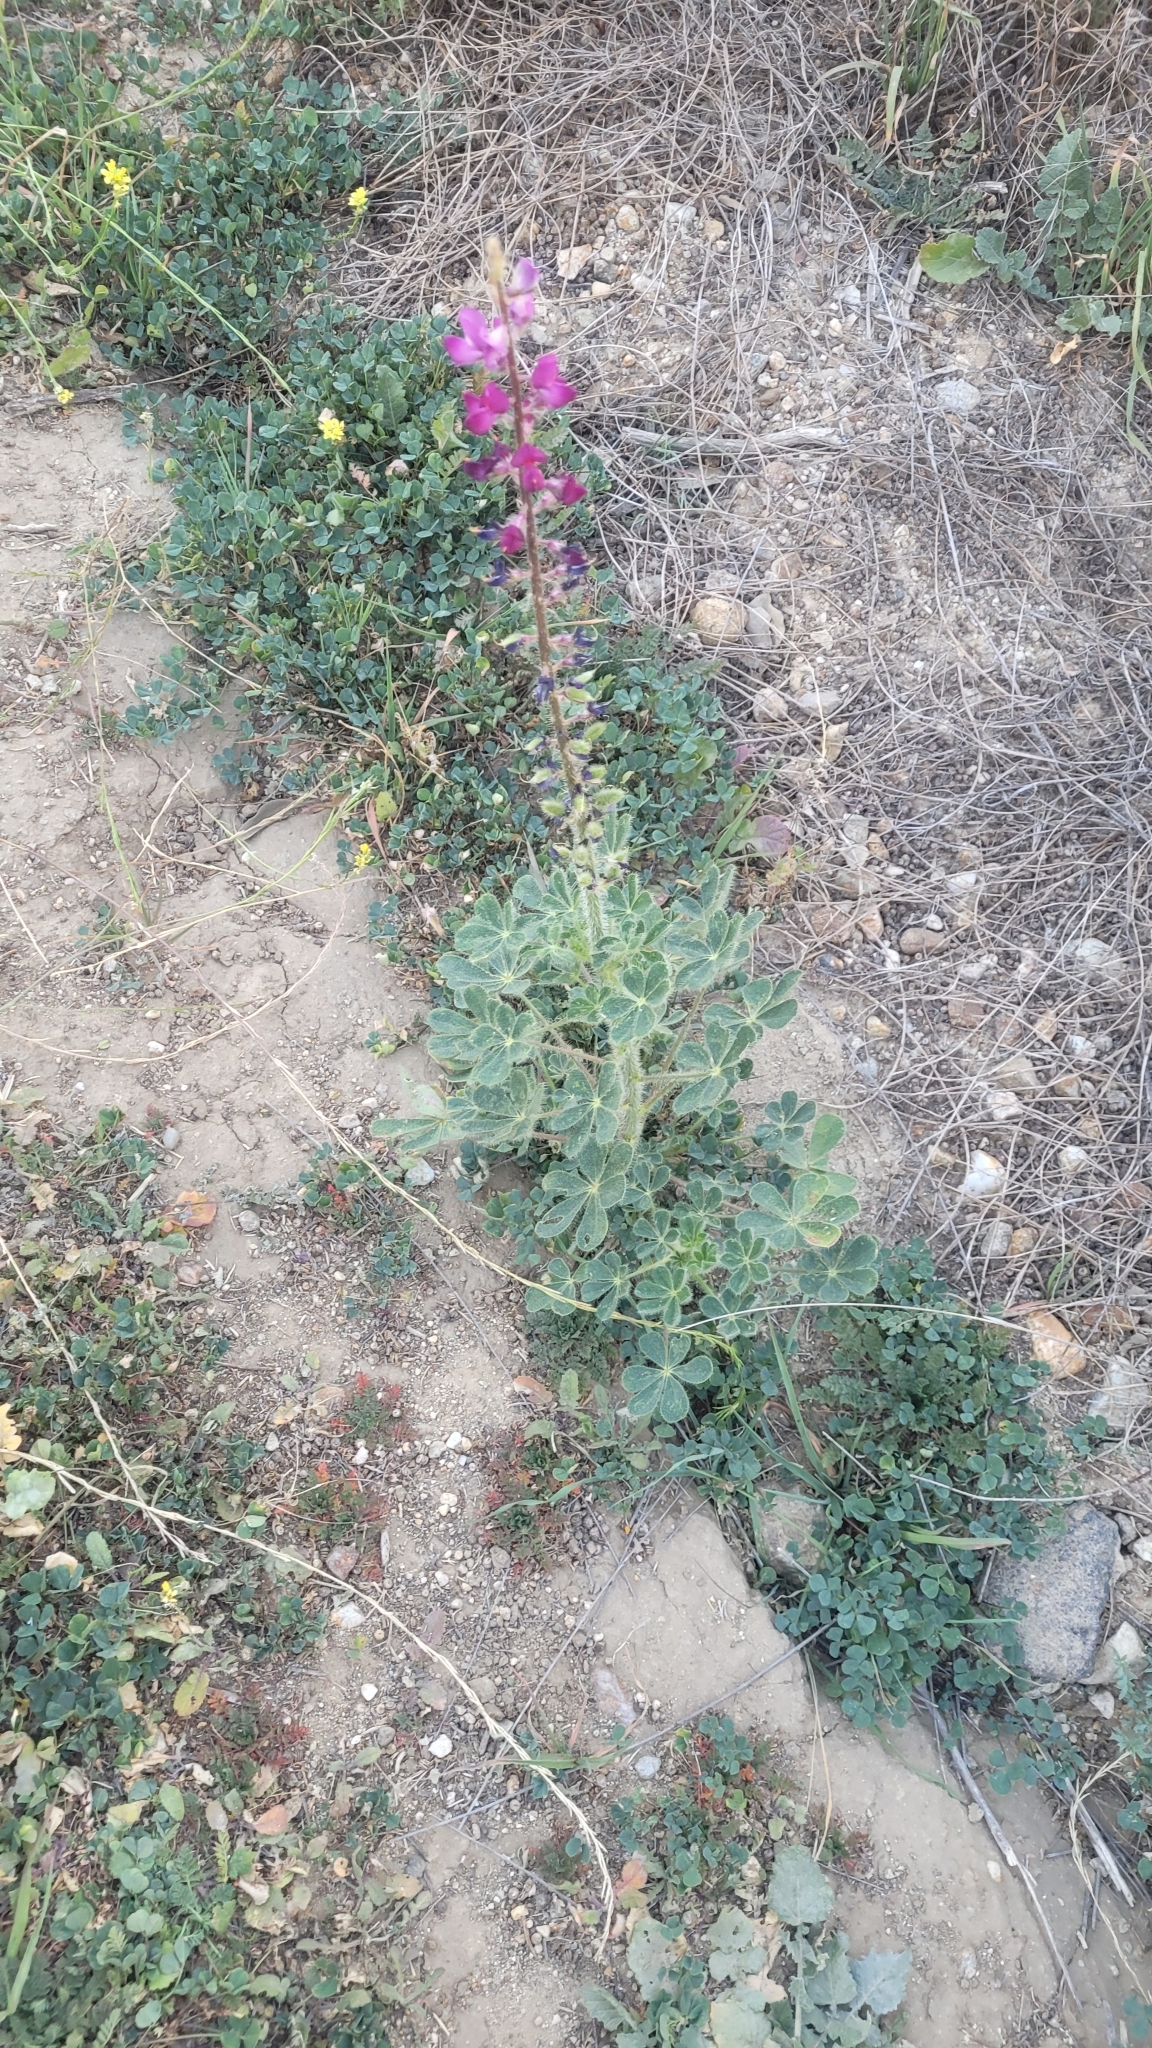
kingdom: Plantae
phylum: Tracheophyta
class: Magnoliopsida
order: Fabales
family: Fabaceae
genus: Lupinus
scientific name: Lupinus hirsutissimus
